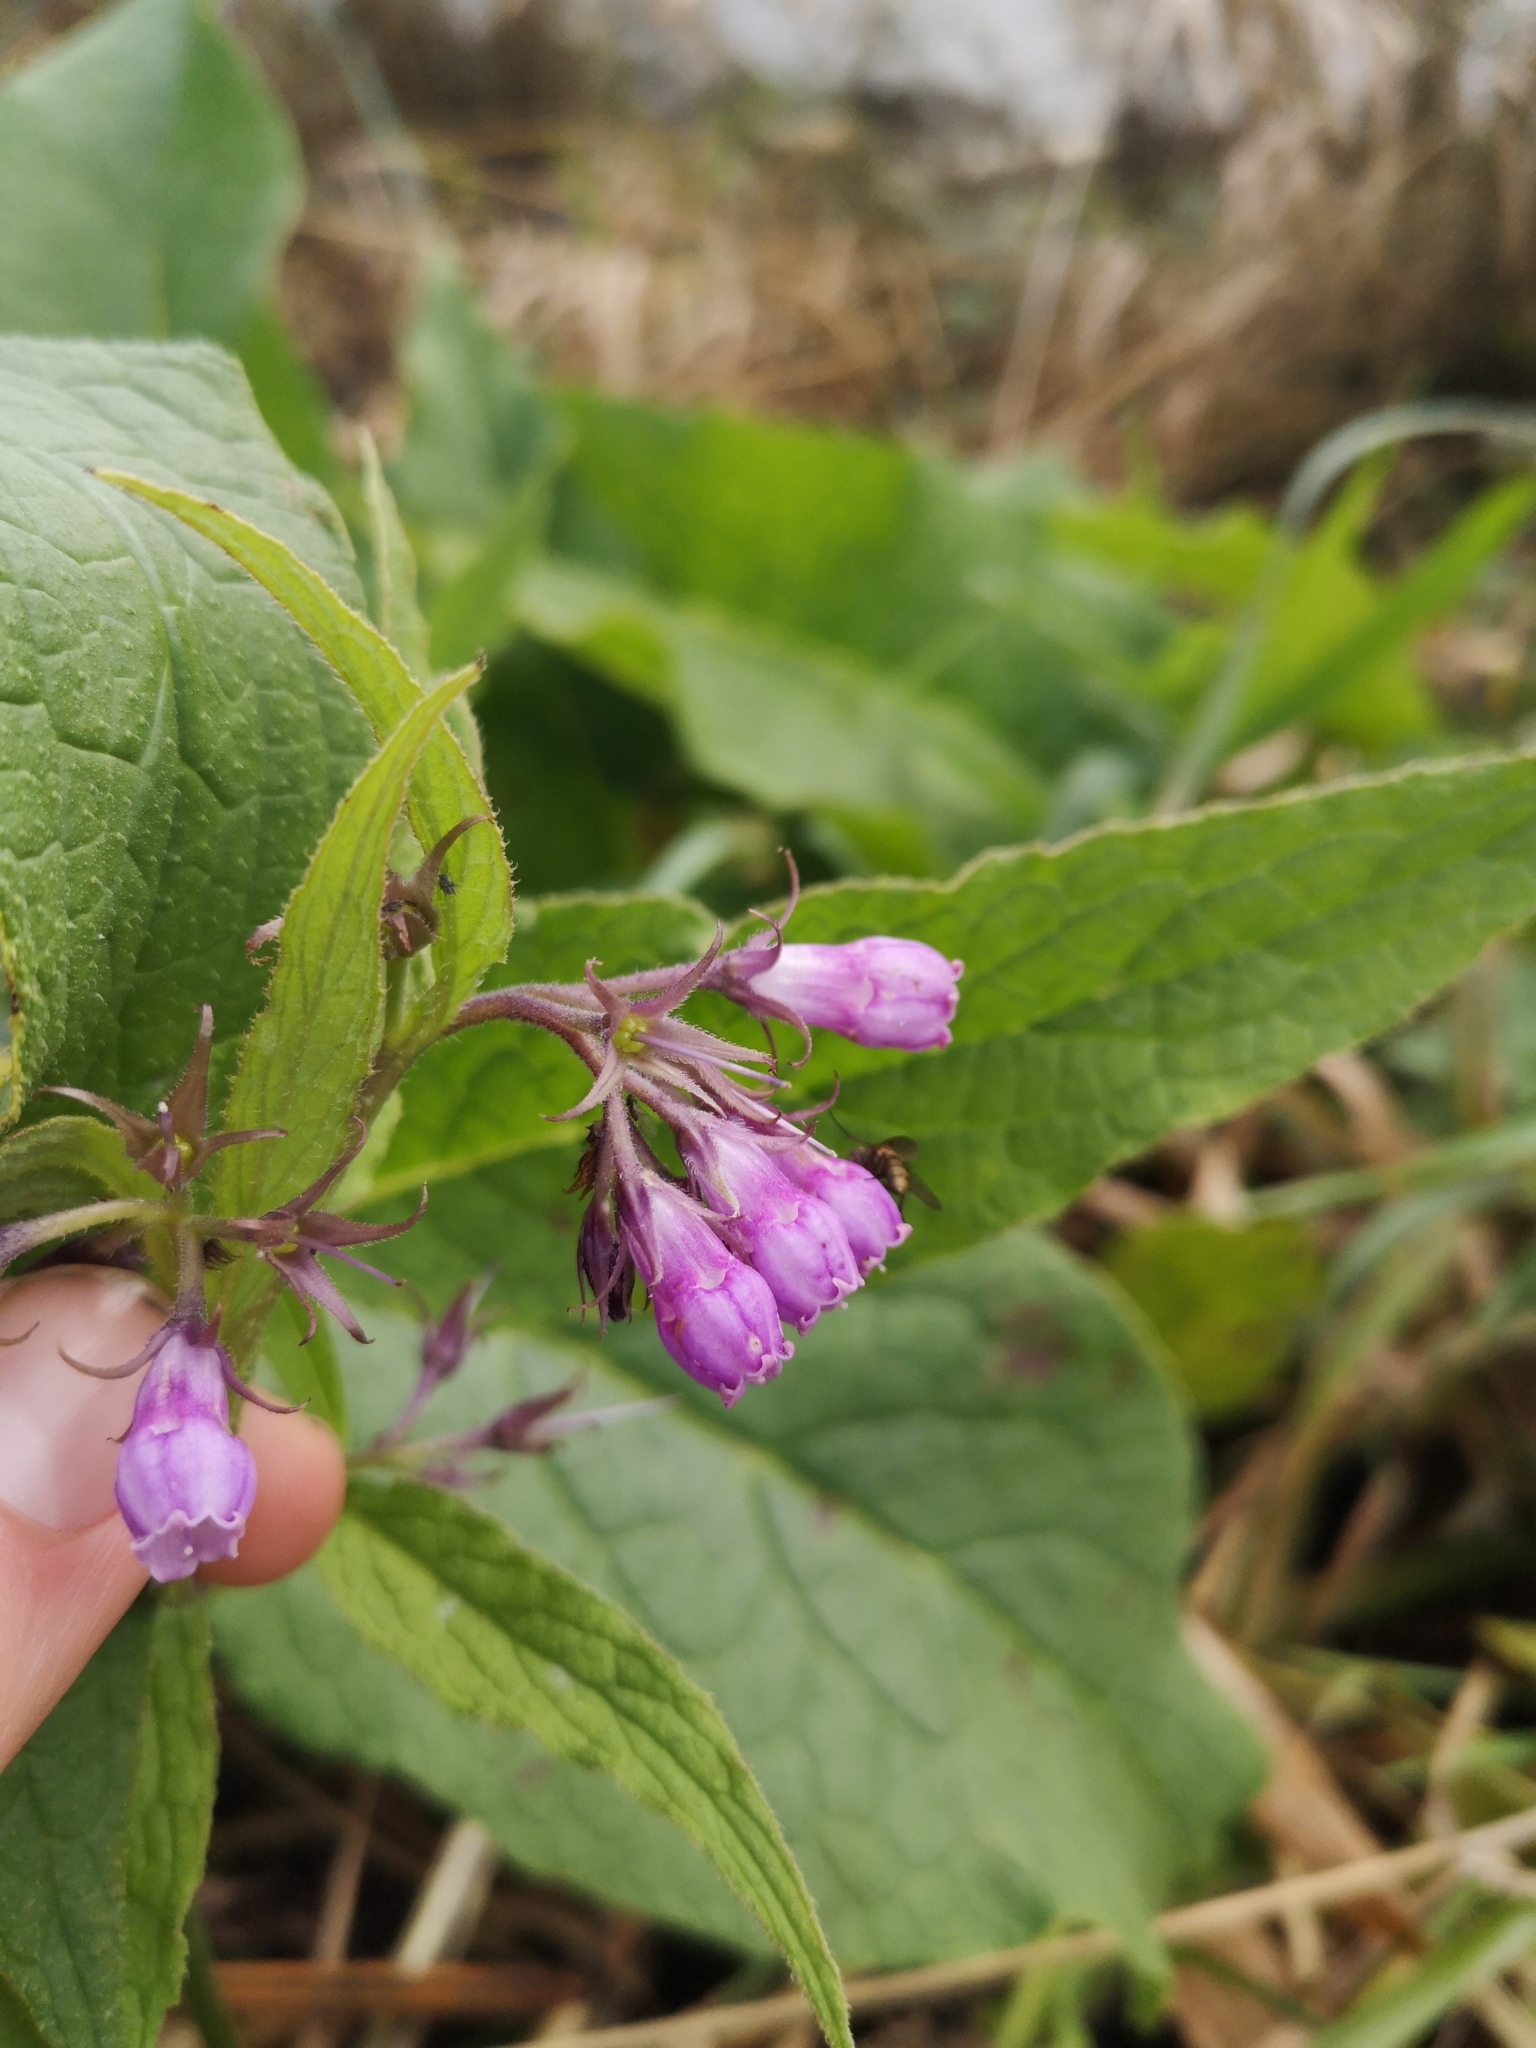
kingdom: Plantae
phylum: Tracheophyta
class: Magnoliopsida
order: Boraginales
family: Boraginaceae
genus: Symphytum
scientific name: Symphytum officinale
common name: Common comfrey
